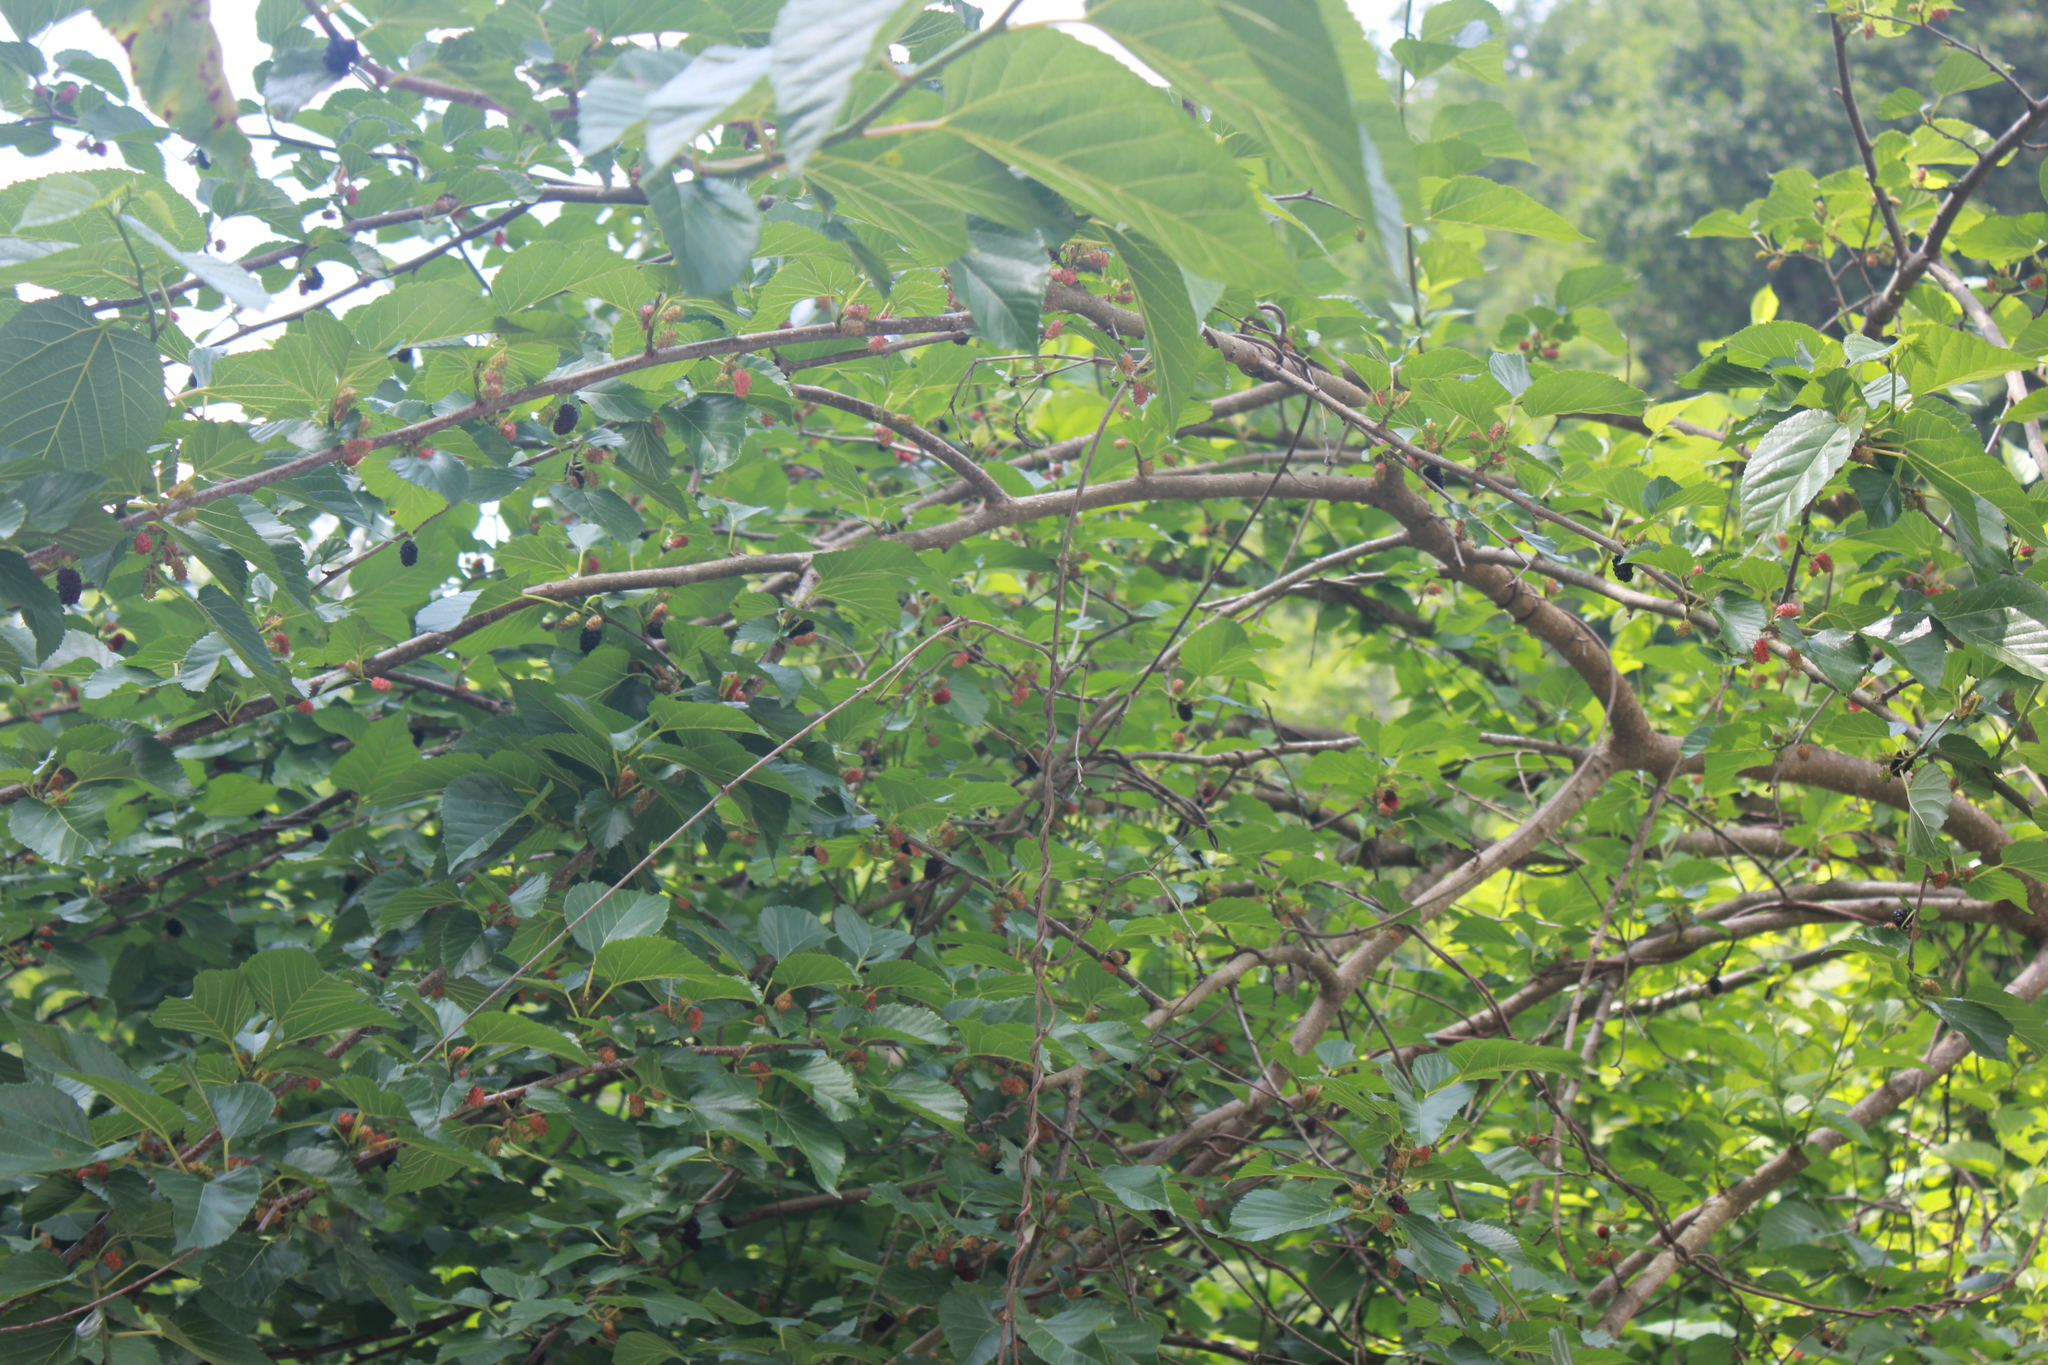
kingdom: Plantae
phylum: Tracheophyta
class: Magnoliopsida
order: Rosales
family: Moraceae
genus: Morus
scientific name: Morus alba
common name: White mulberry
